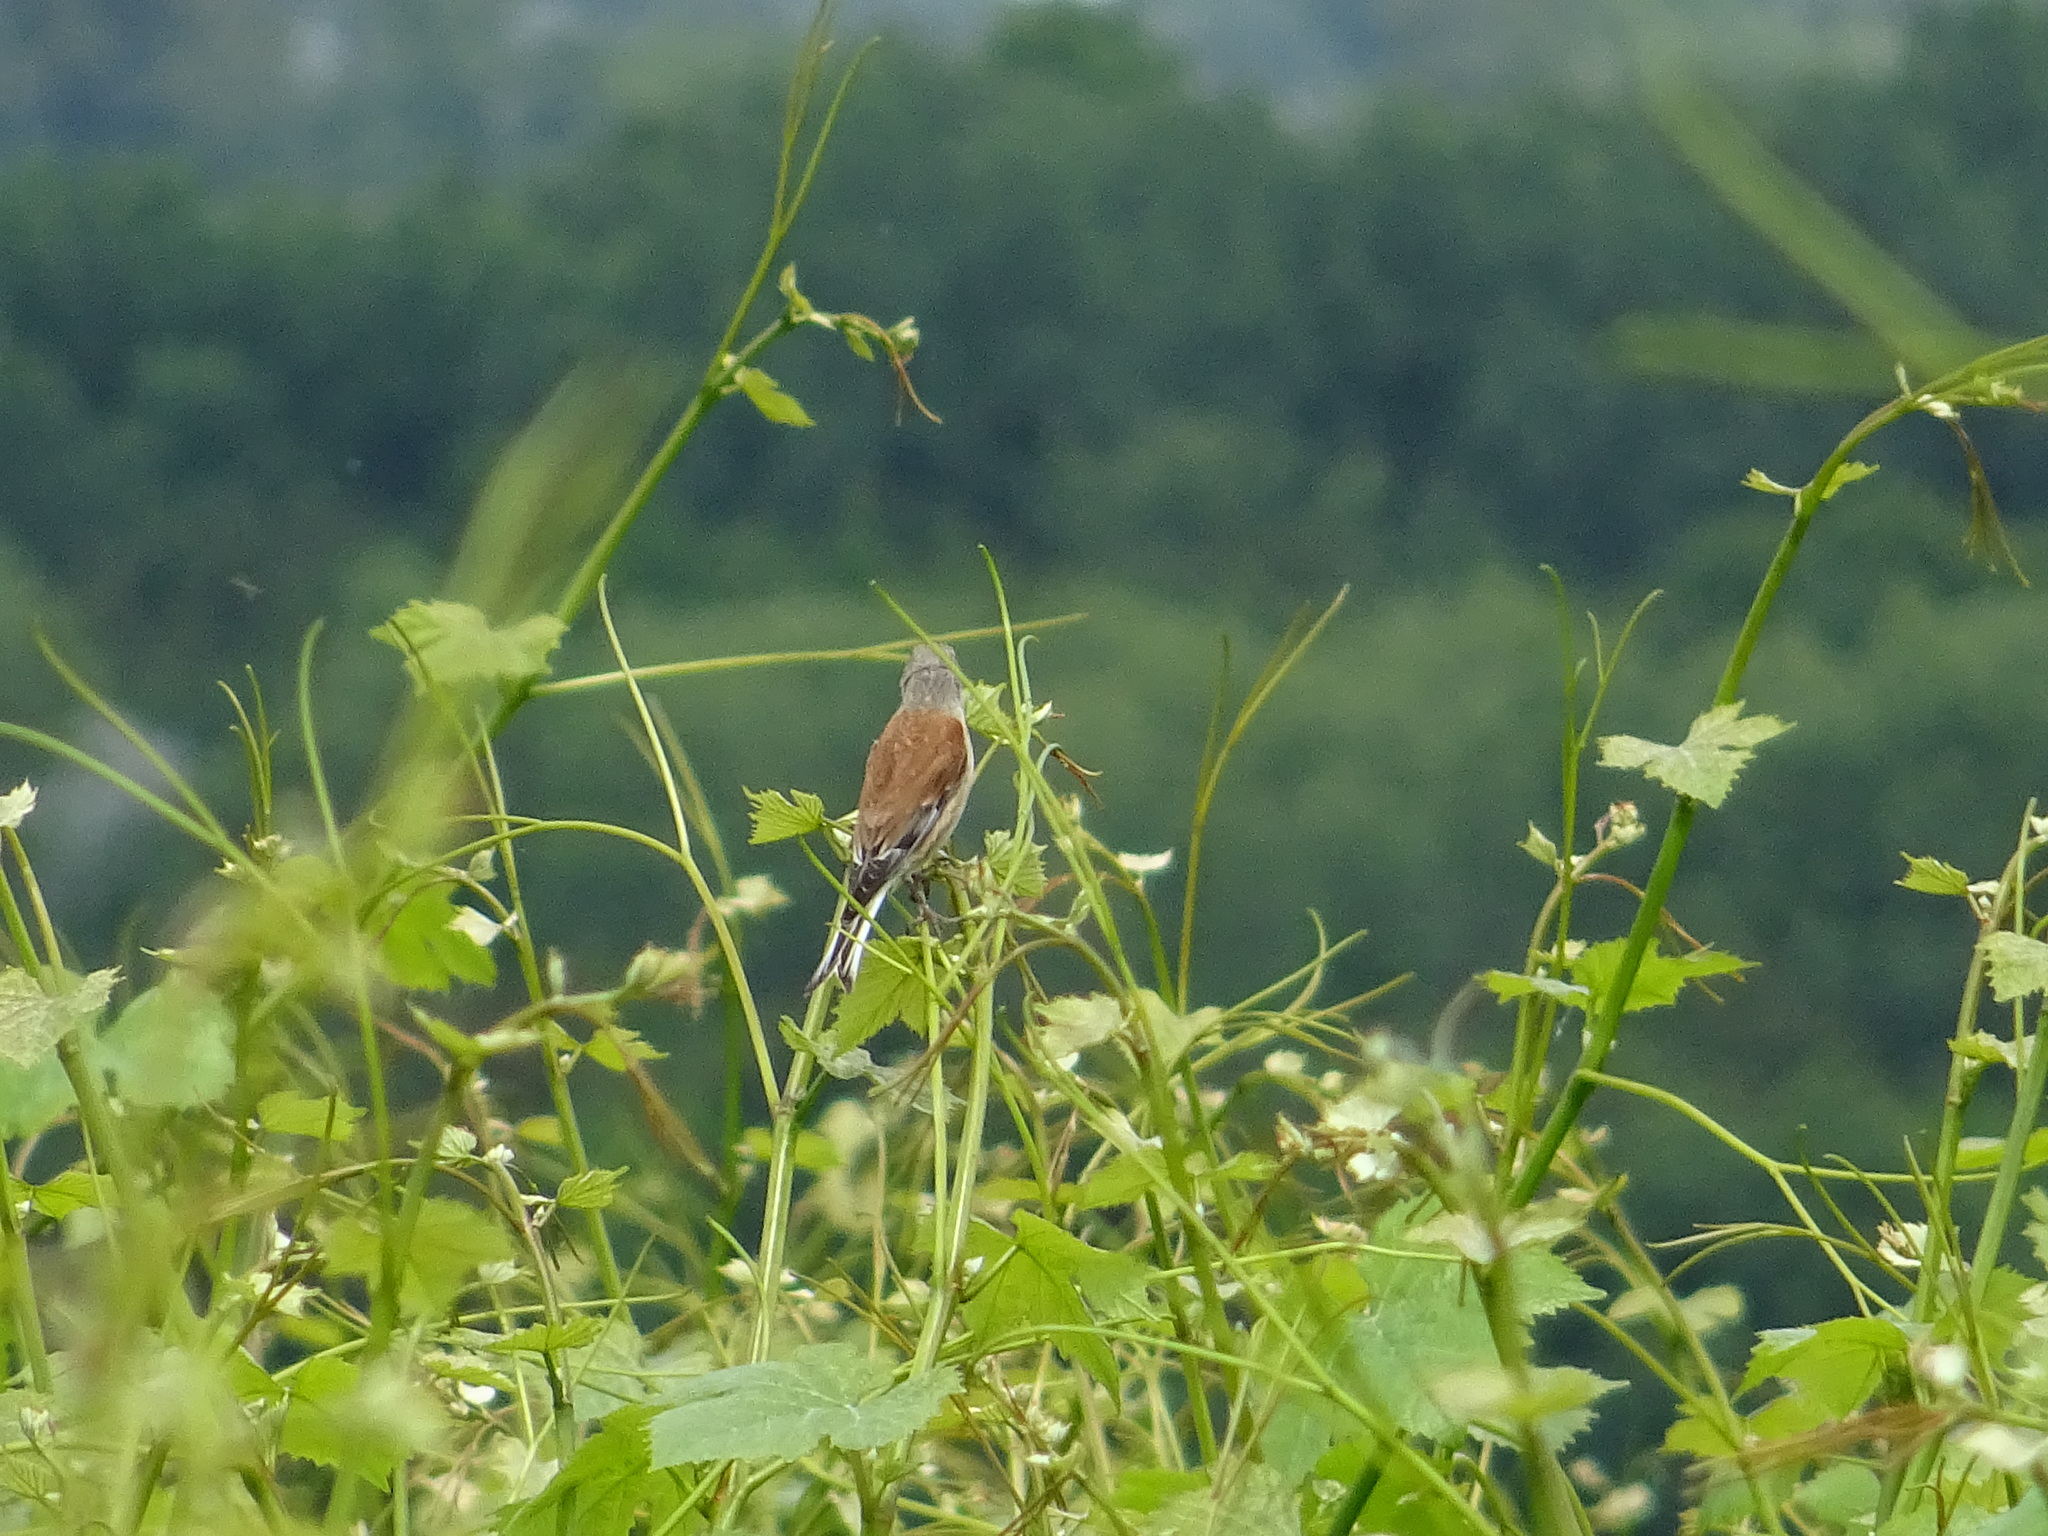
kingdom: Animalia
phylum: Chordata
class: Aves
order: Passeriformes
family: Fringillidae
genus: Linaria
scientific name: Linaria cannabina
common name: Common linnet
